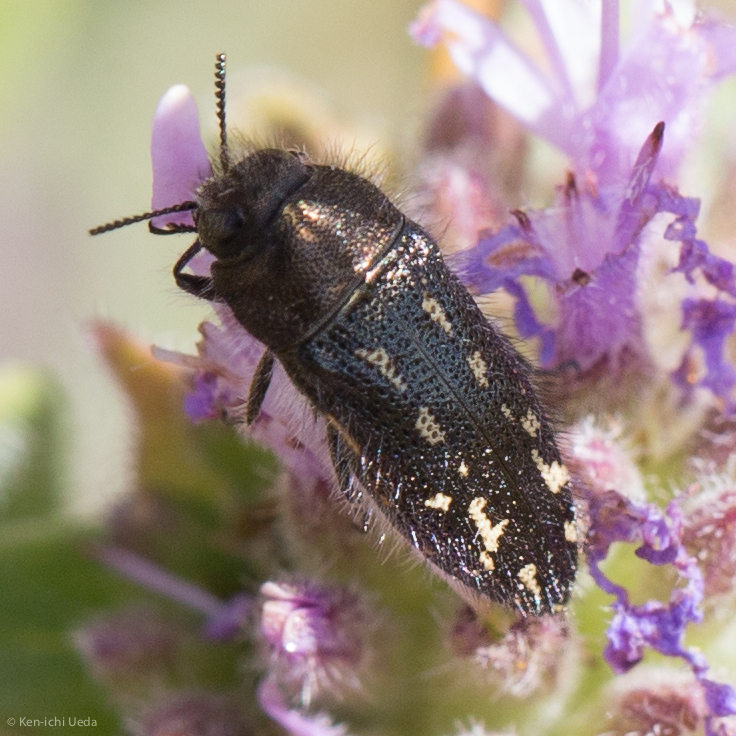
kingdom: Animalia
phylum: Arthropoda
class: Insecta
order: Coleoptera
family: Buprestidae
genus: Acmaeodera
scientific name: Acmaeodera retifera
